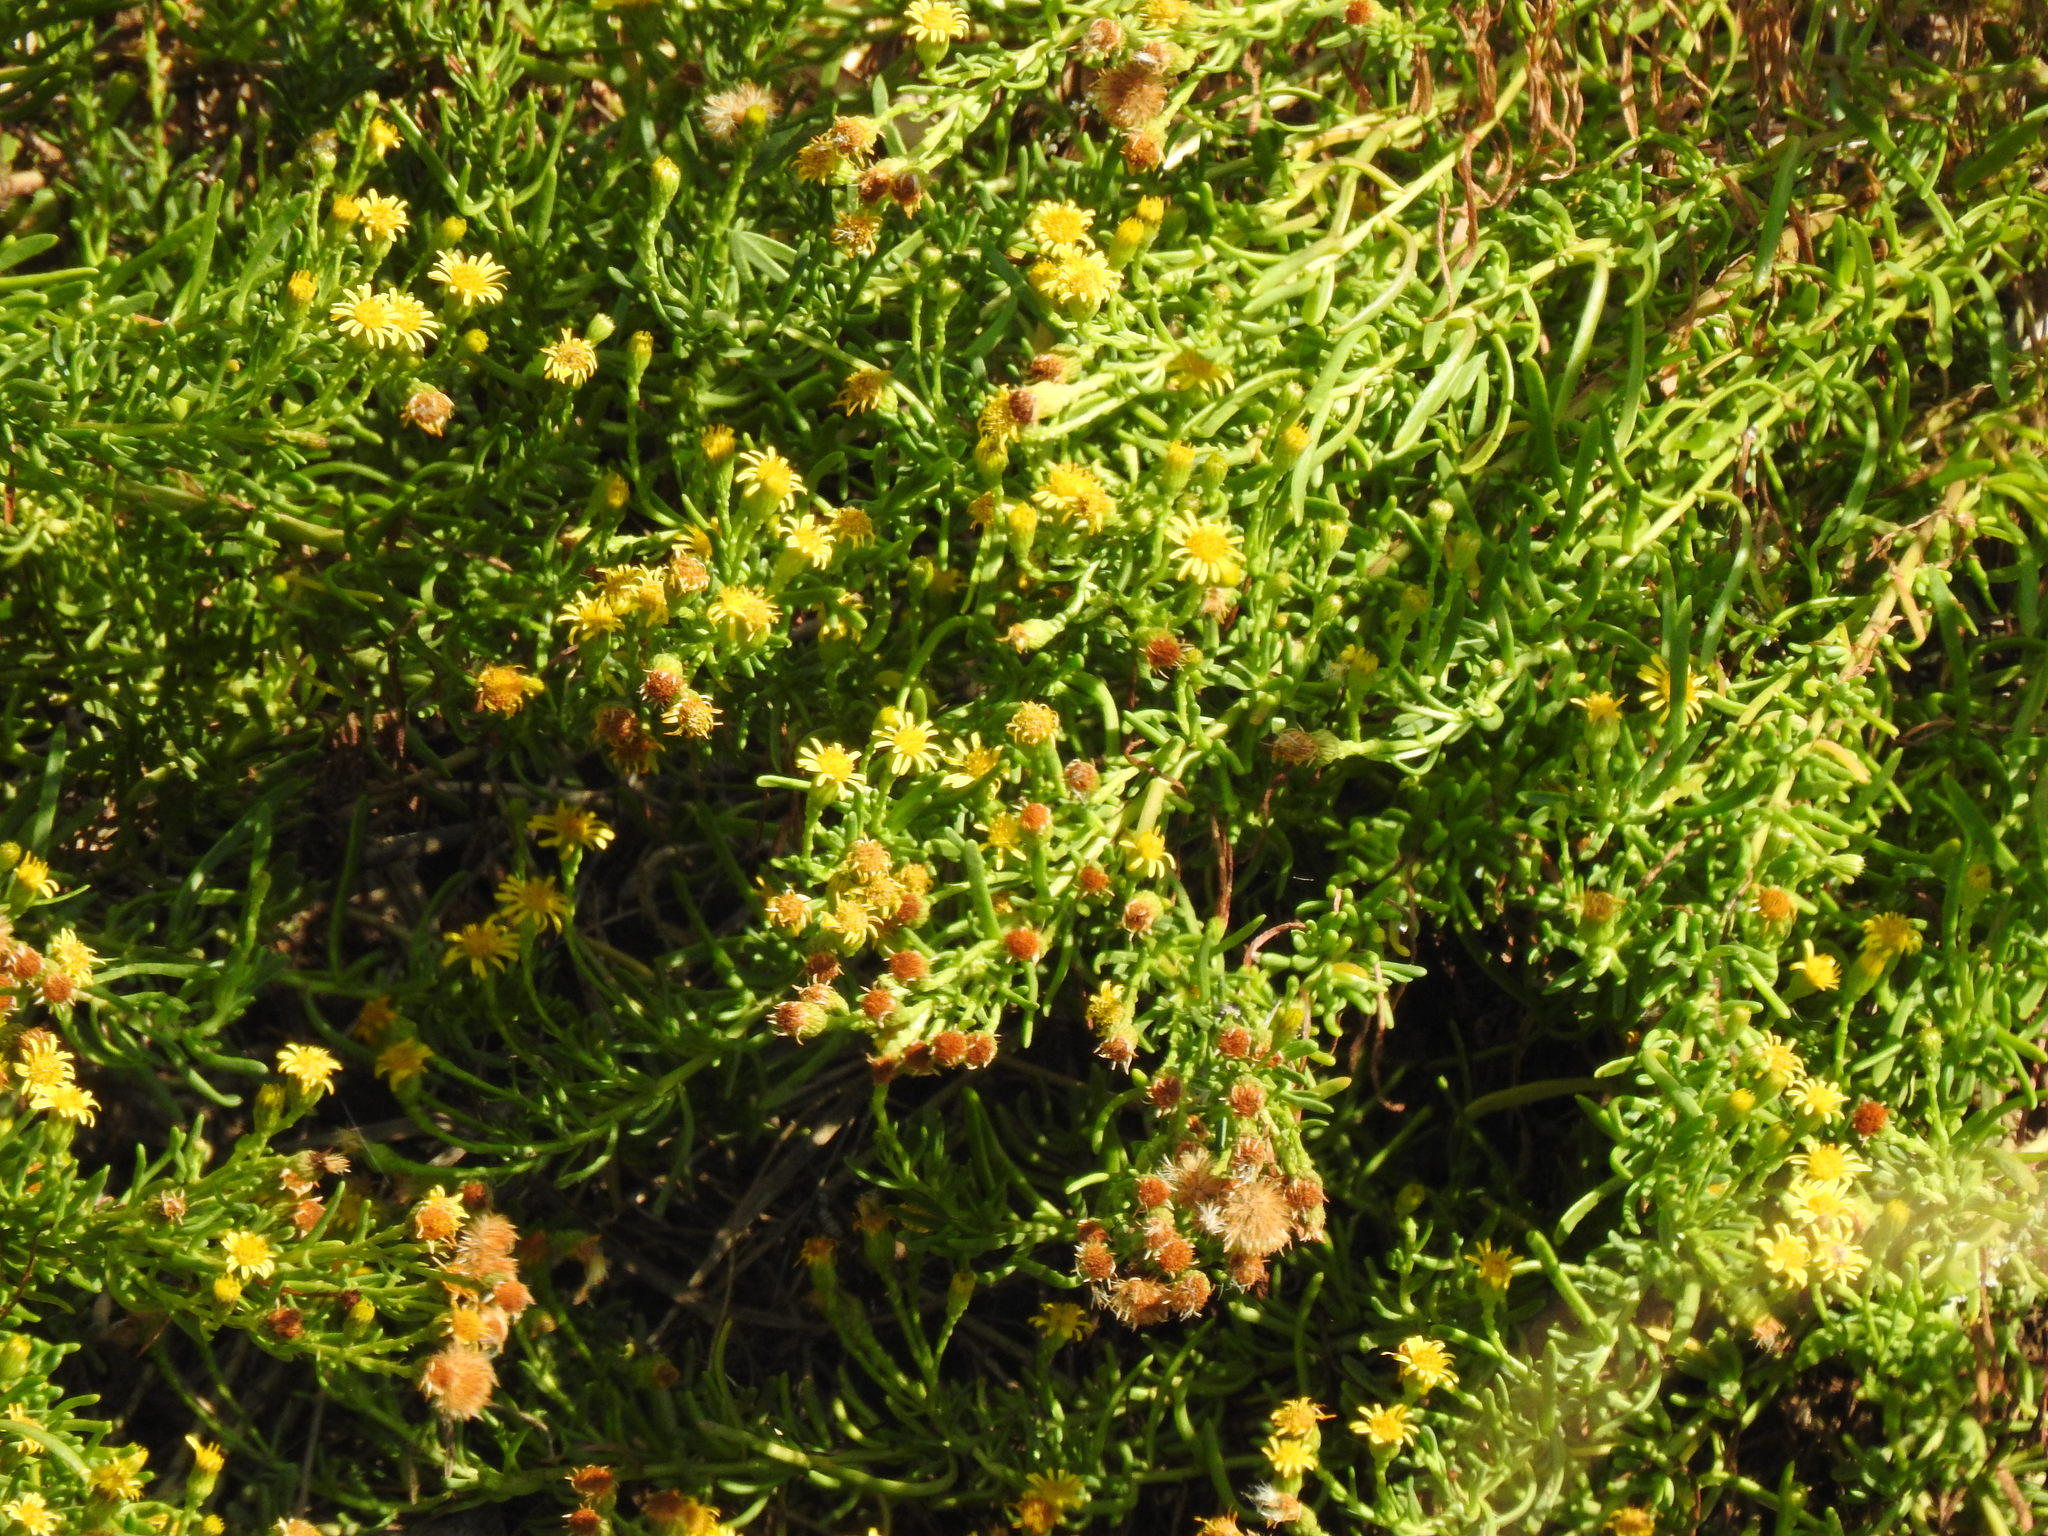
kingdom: Plantae
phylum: Tracheophyta
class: Magnoliopsida
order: Asterales
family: Asteraceae
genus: Limbarda
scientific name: Limbarda crithmoides
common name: Golden samphire
